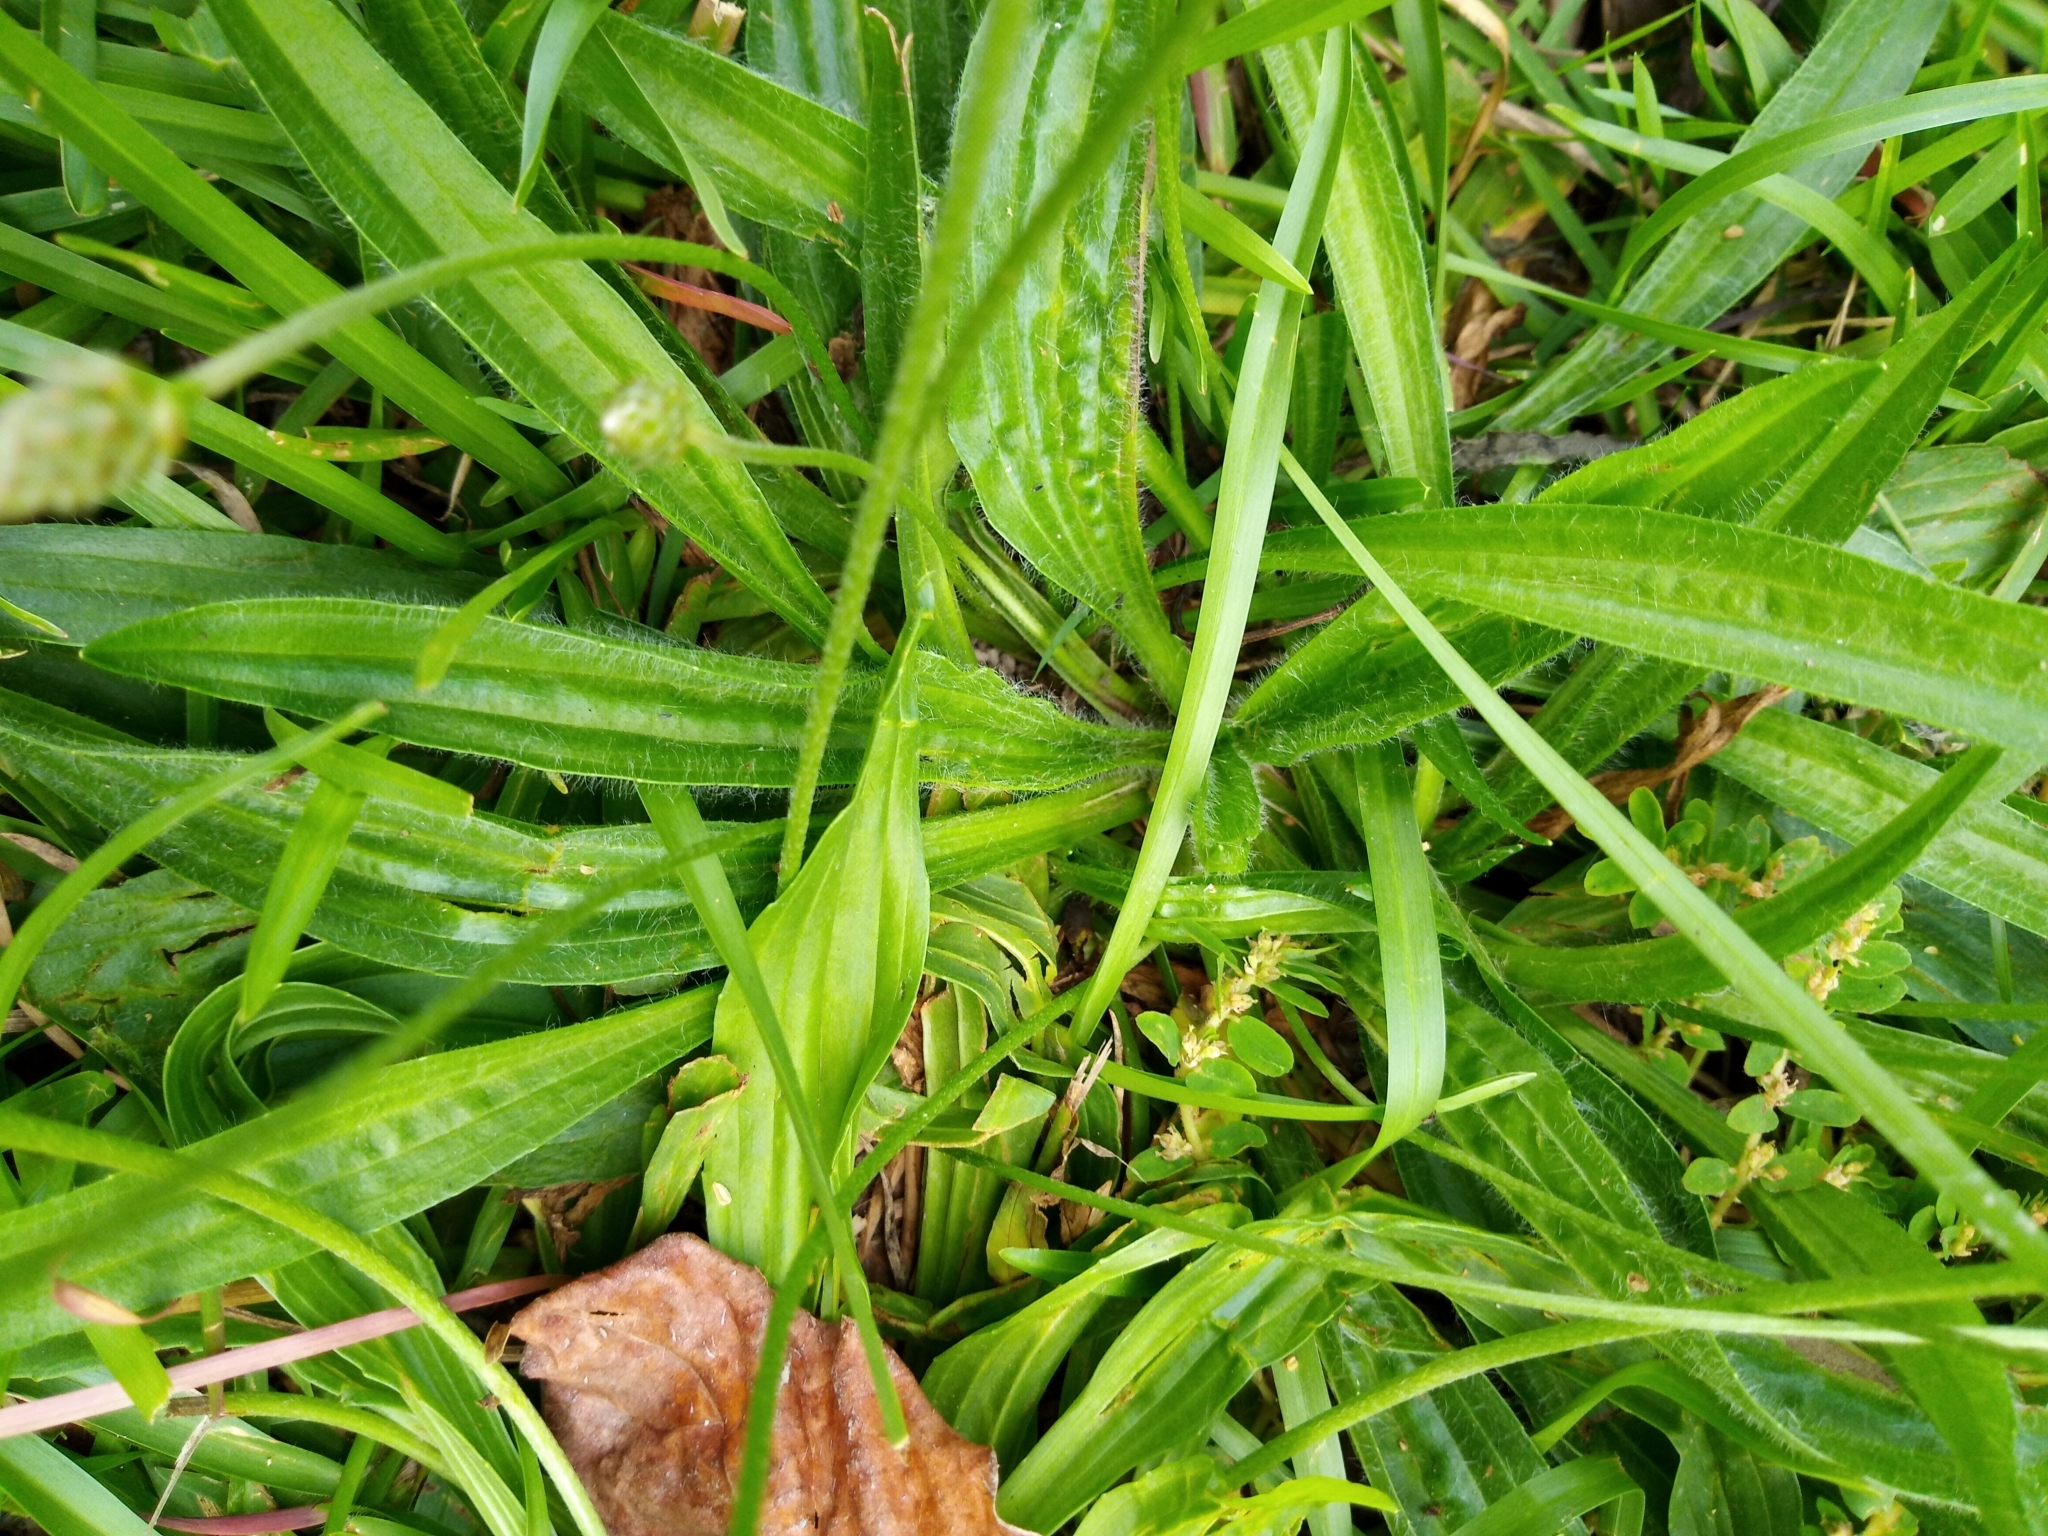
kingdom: Plantae
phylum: Tracheophyta
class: Magnoliopsida
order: Lamiales
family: Plantaginaceae
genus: Plantago
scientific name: Plantago lanceolata
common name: Ribwort plantain
